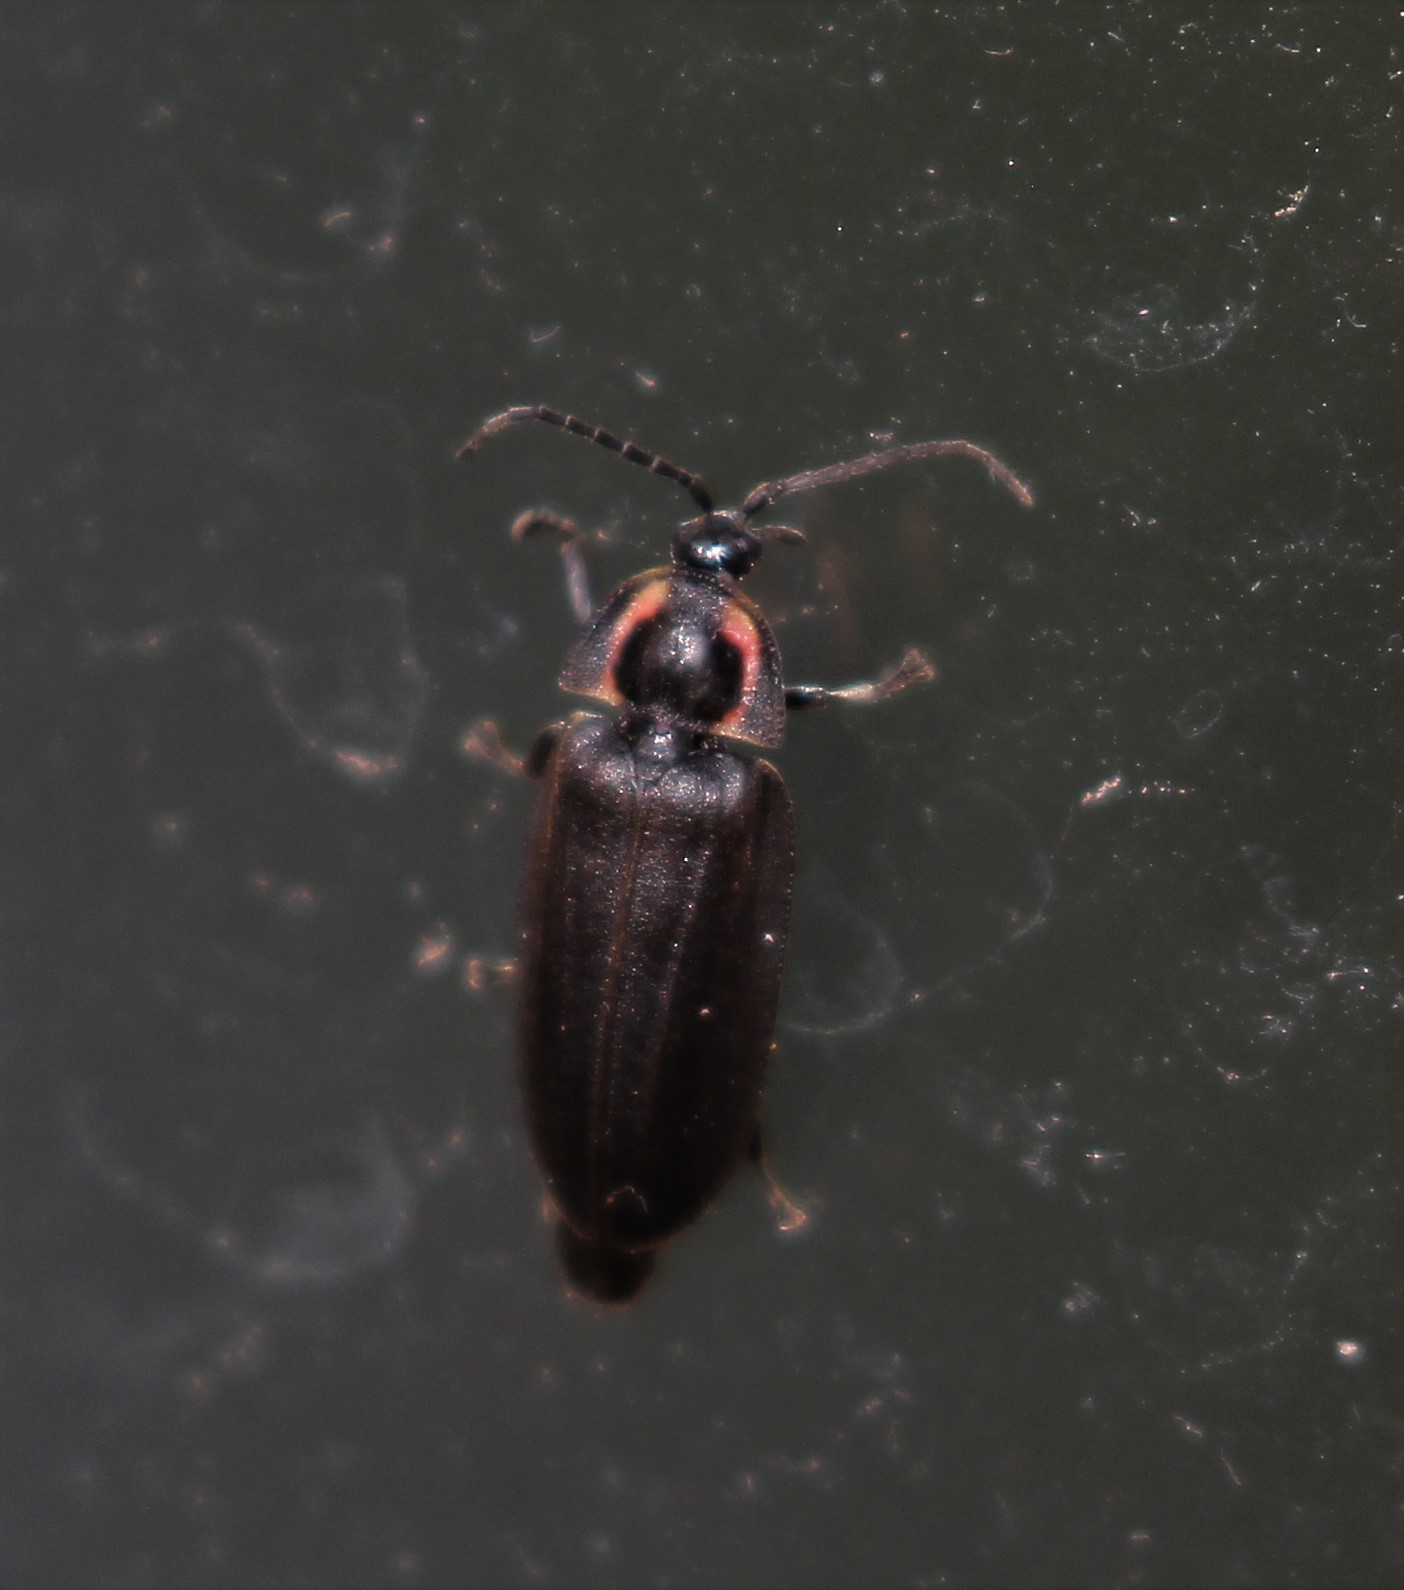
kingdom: Animalia
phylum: Arthropoda
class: Insecta
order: Coleoptera
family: Lampyridae
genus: Photinus
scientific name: Photinus corrusca
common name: Winter firefly
